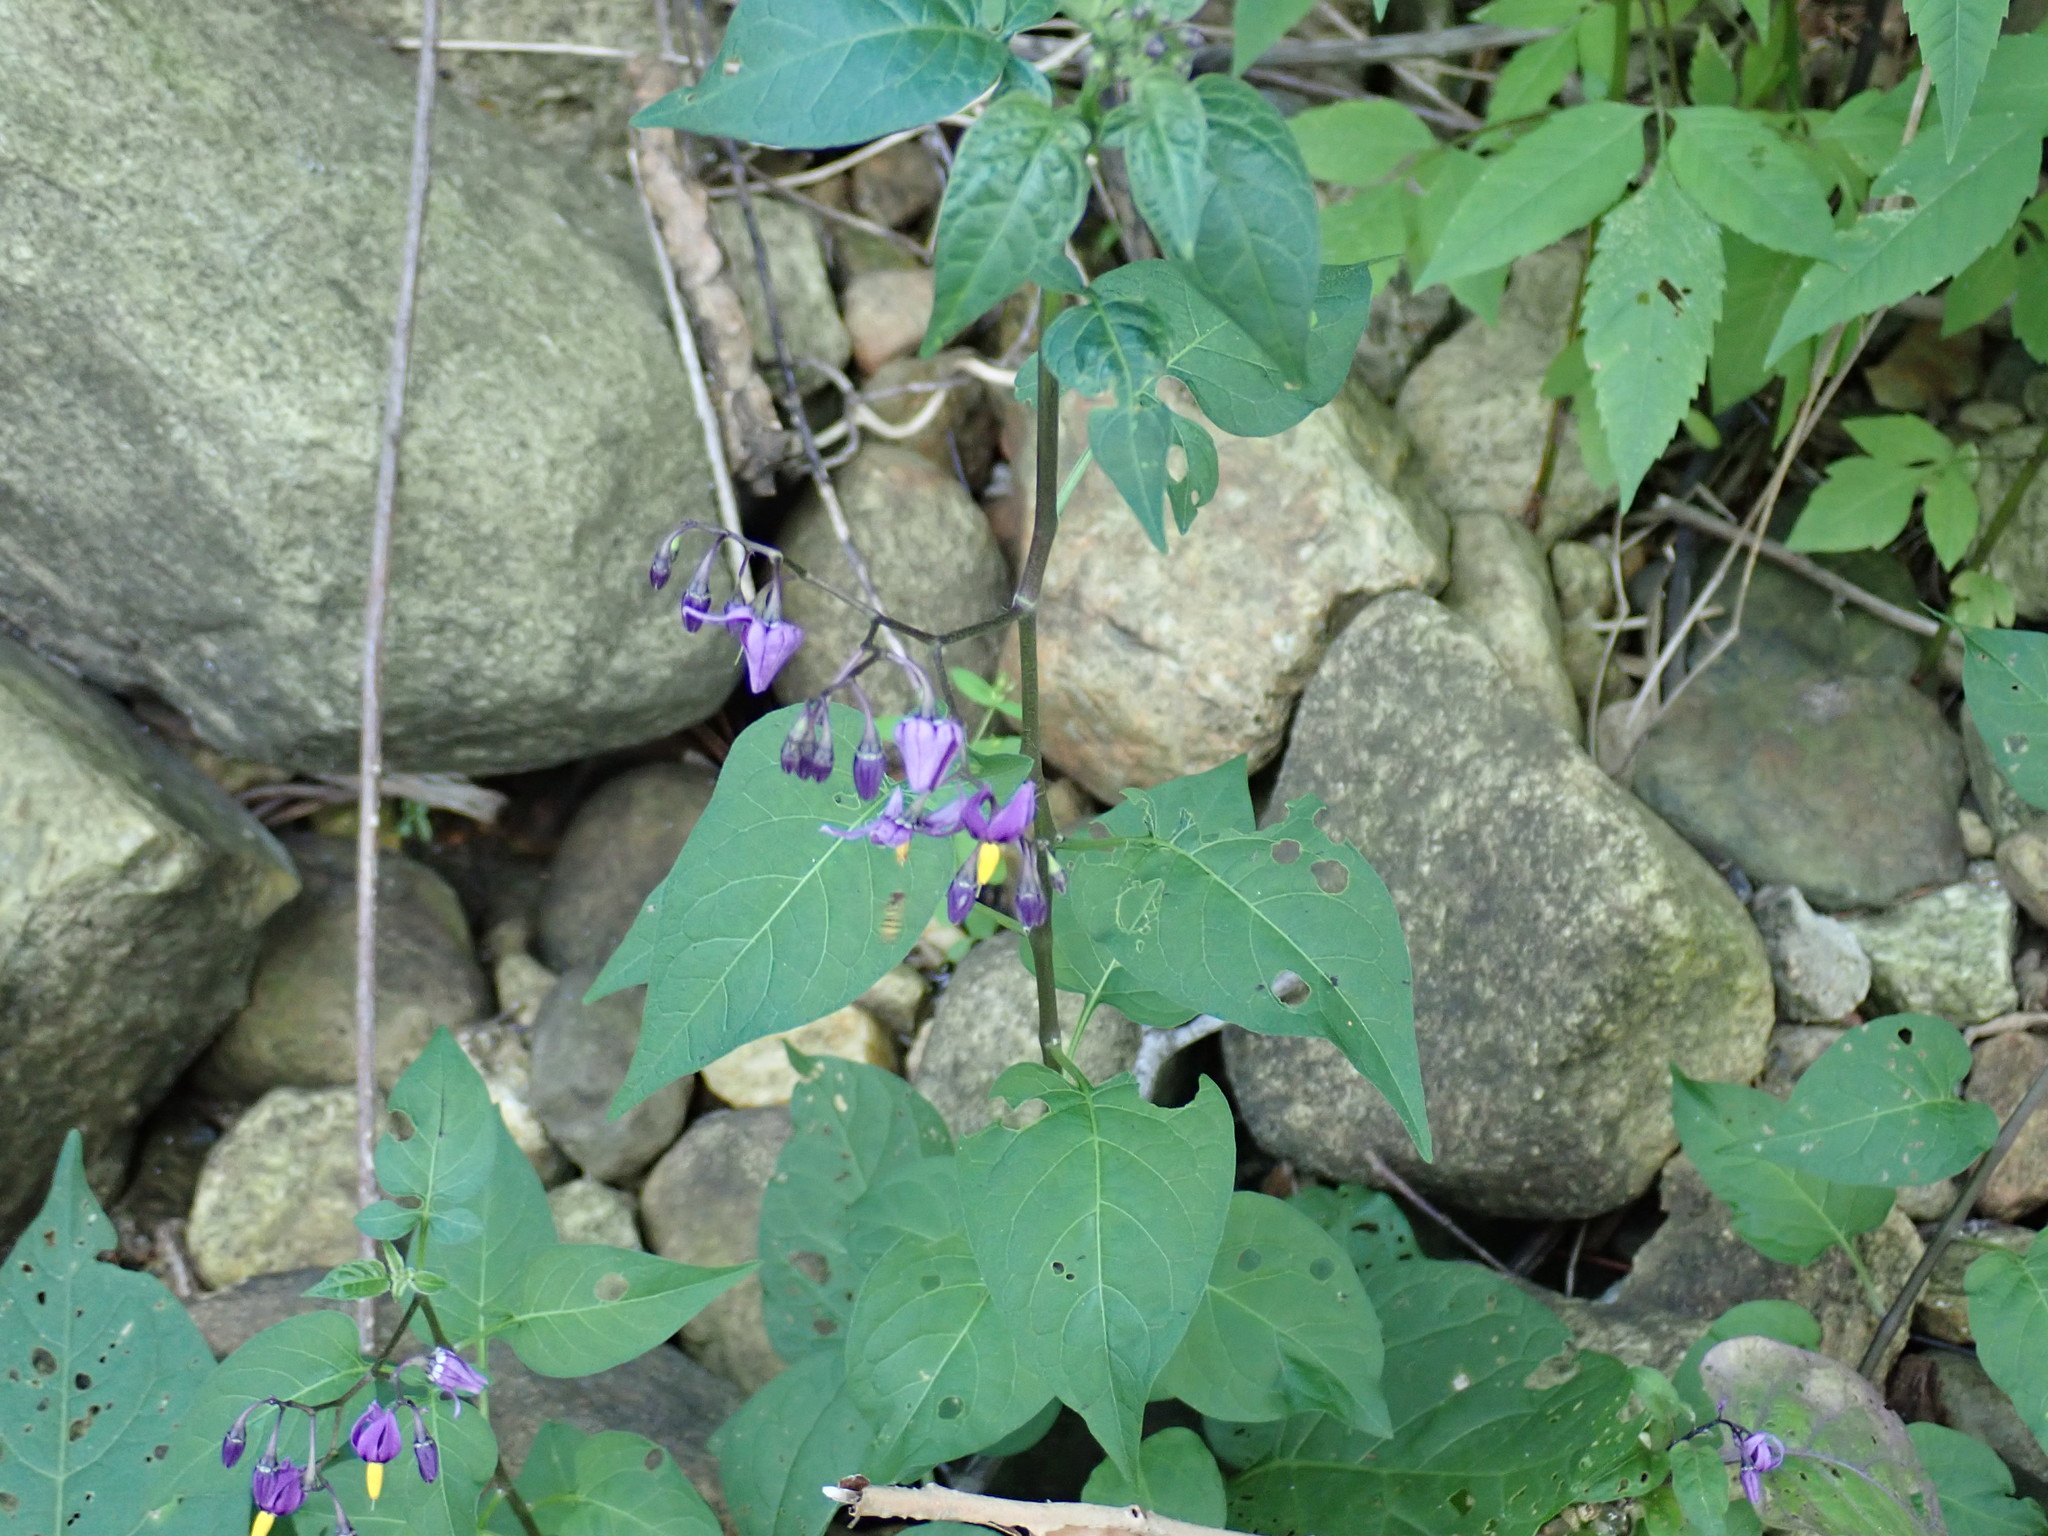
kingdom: Plantae
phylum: Tracheophyta
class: Magnoliopsida
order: Solanales
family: Solanaceae
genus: Solanum
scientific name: Solanum dulcamara
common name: Climbing nightshade
